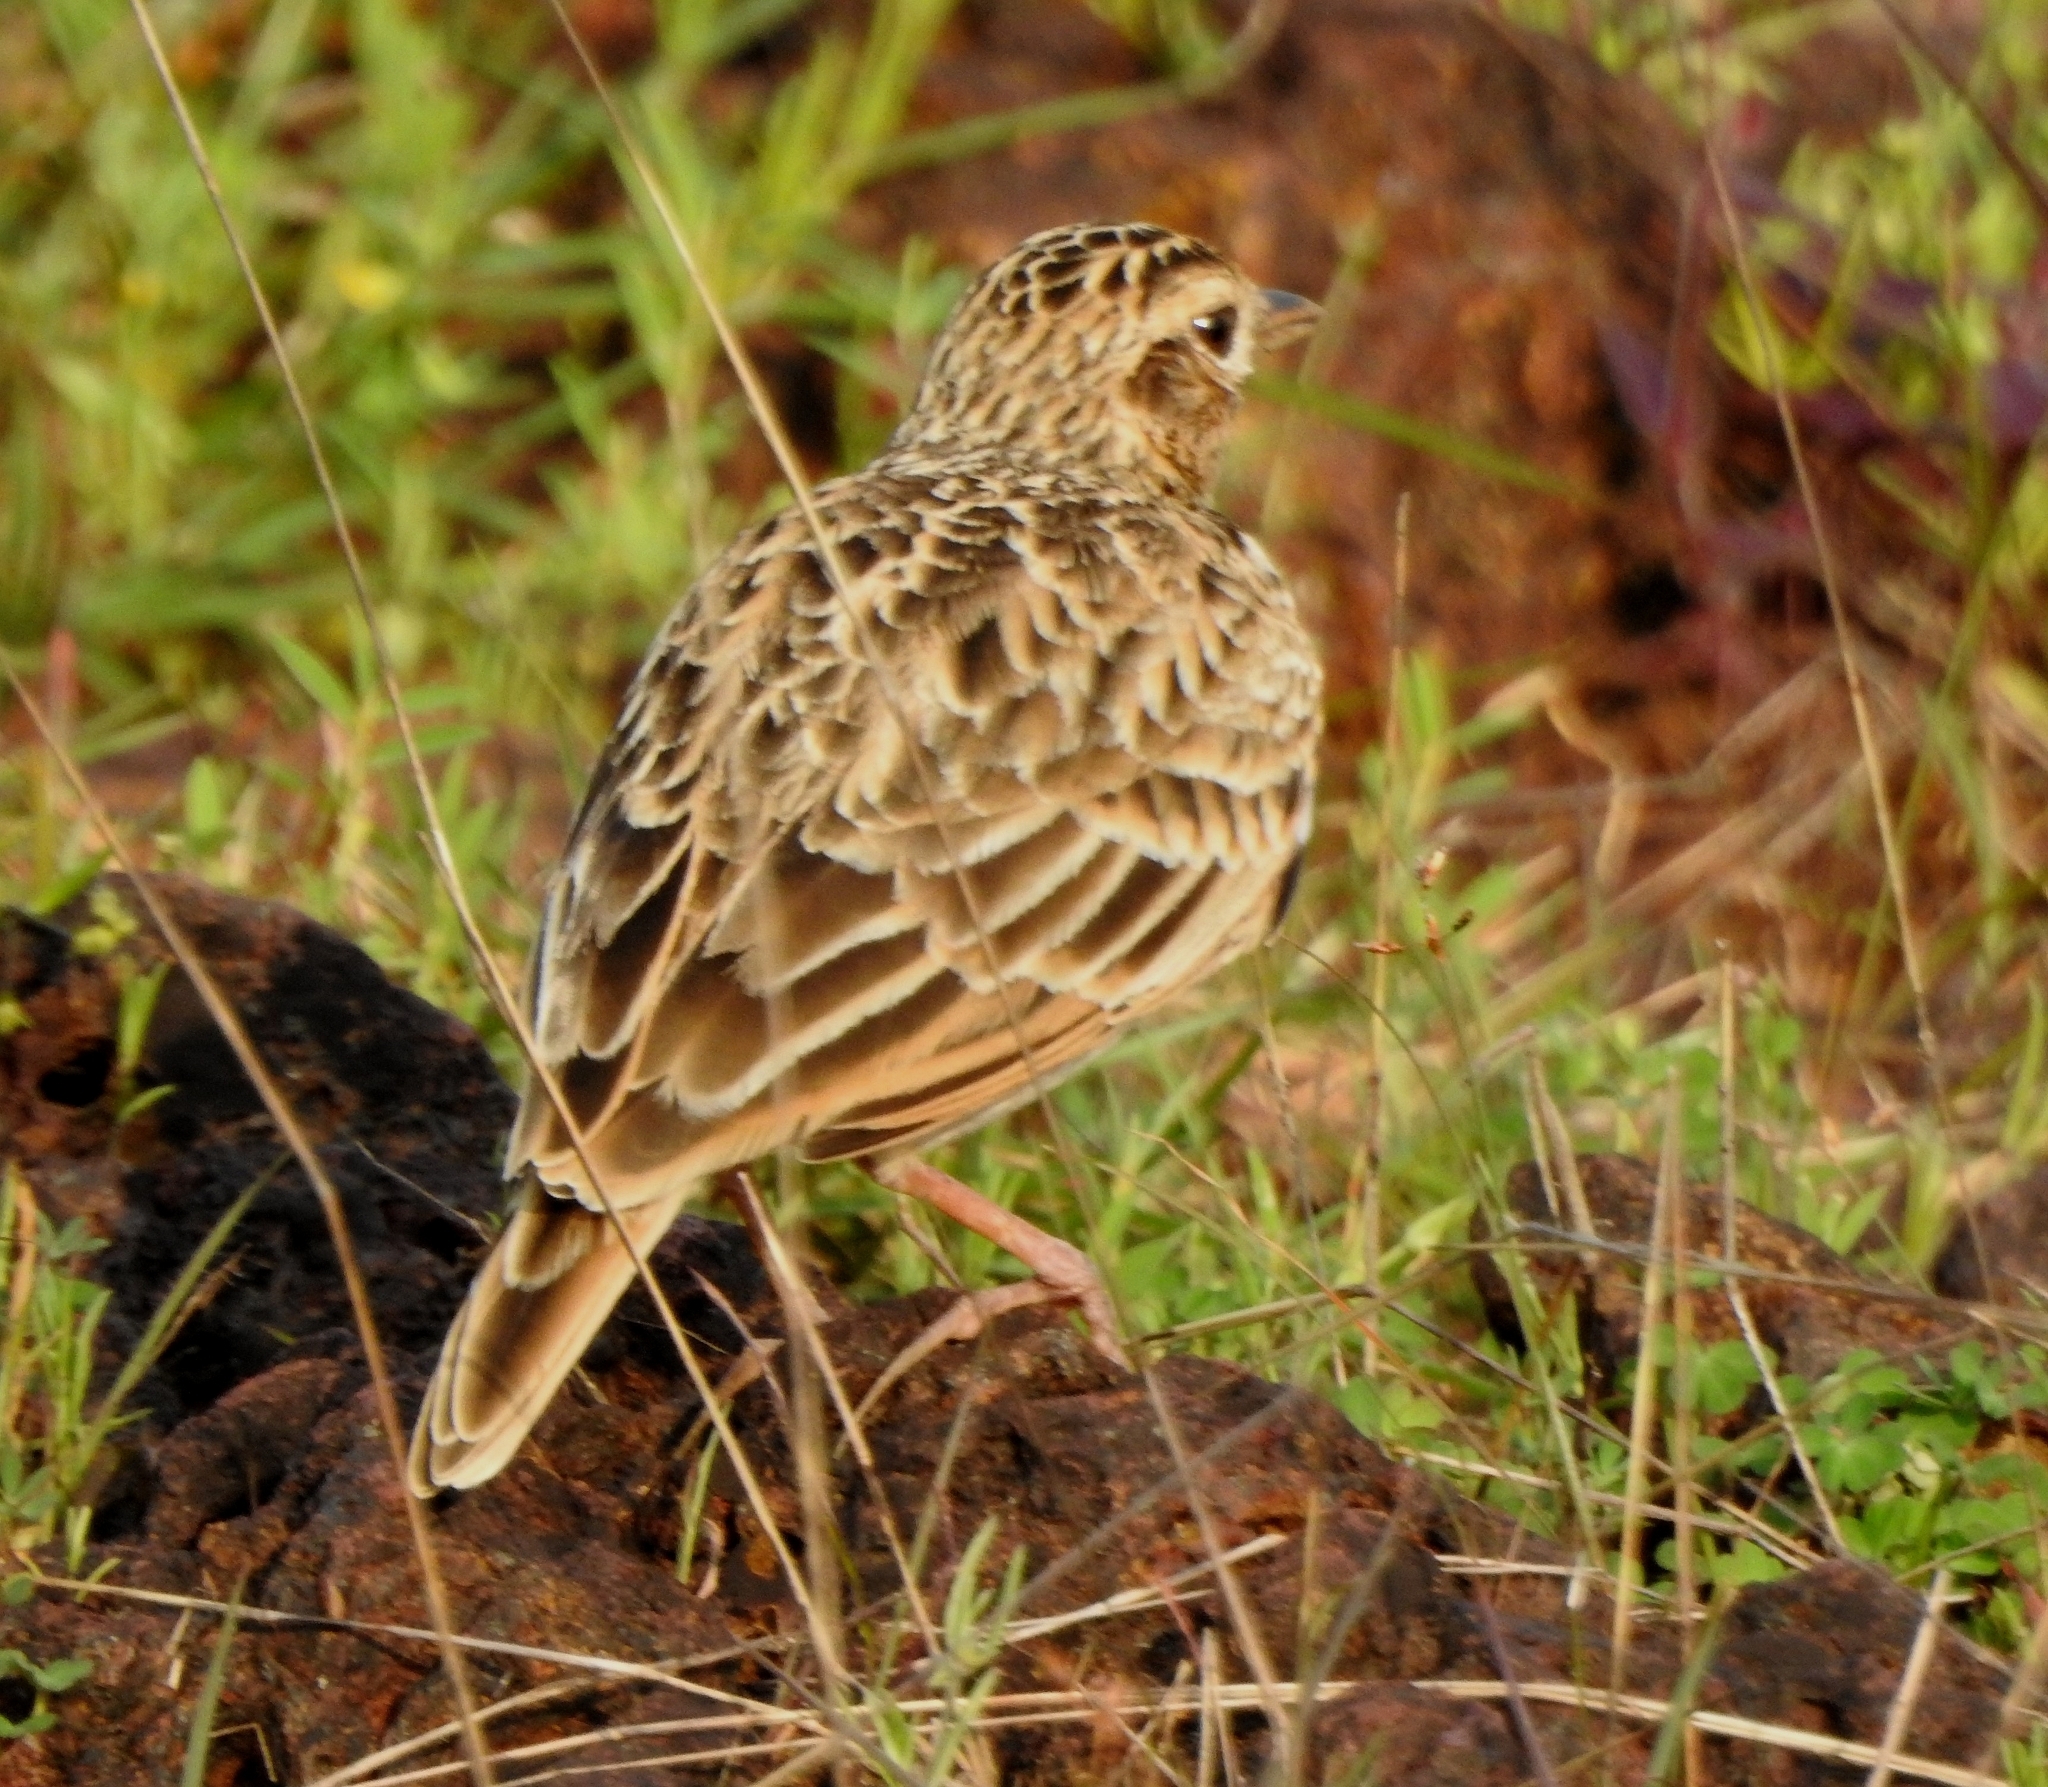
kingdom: Animalia
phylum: Chordata
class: Aves
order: Passeriformes
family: Alaudidae
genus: Alauda
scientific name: Alauda gulgula
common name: Oriental skylark
